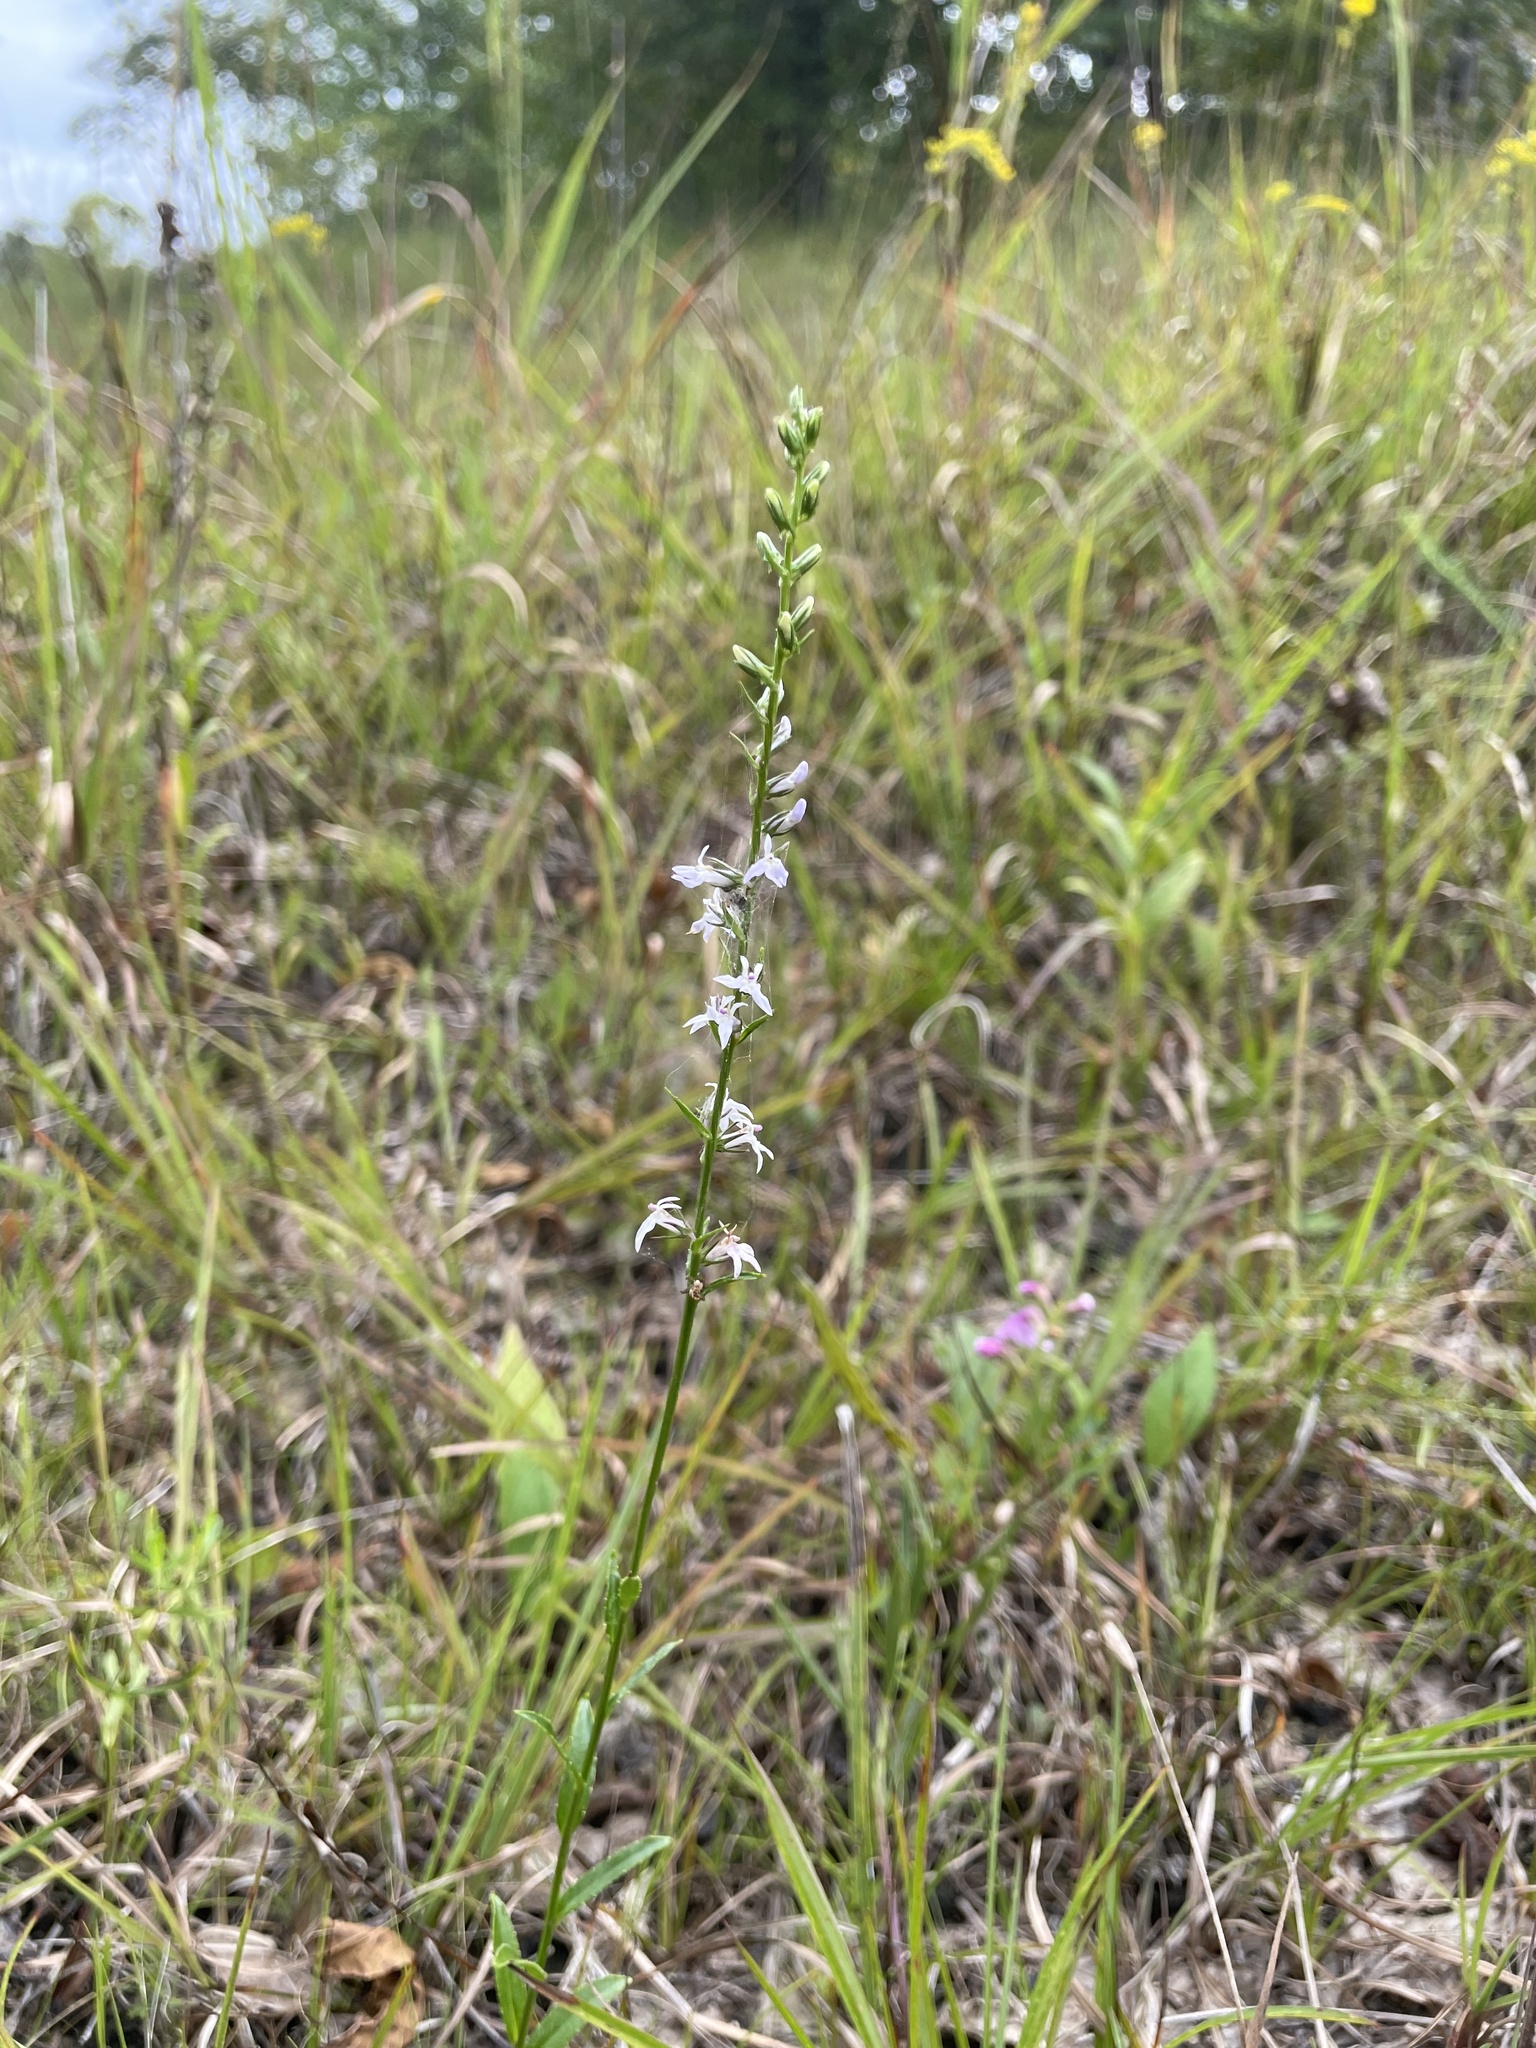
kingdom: Plantae
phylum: Tracheophyta
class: Magnoliopsida
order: Asterales
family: Campanulaceae
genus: Lobelia
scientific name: Lobelia spicata
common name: Pale-spike lobelia
